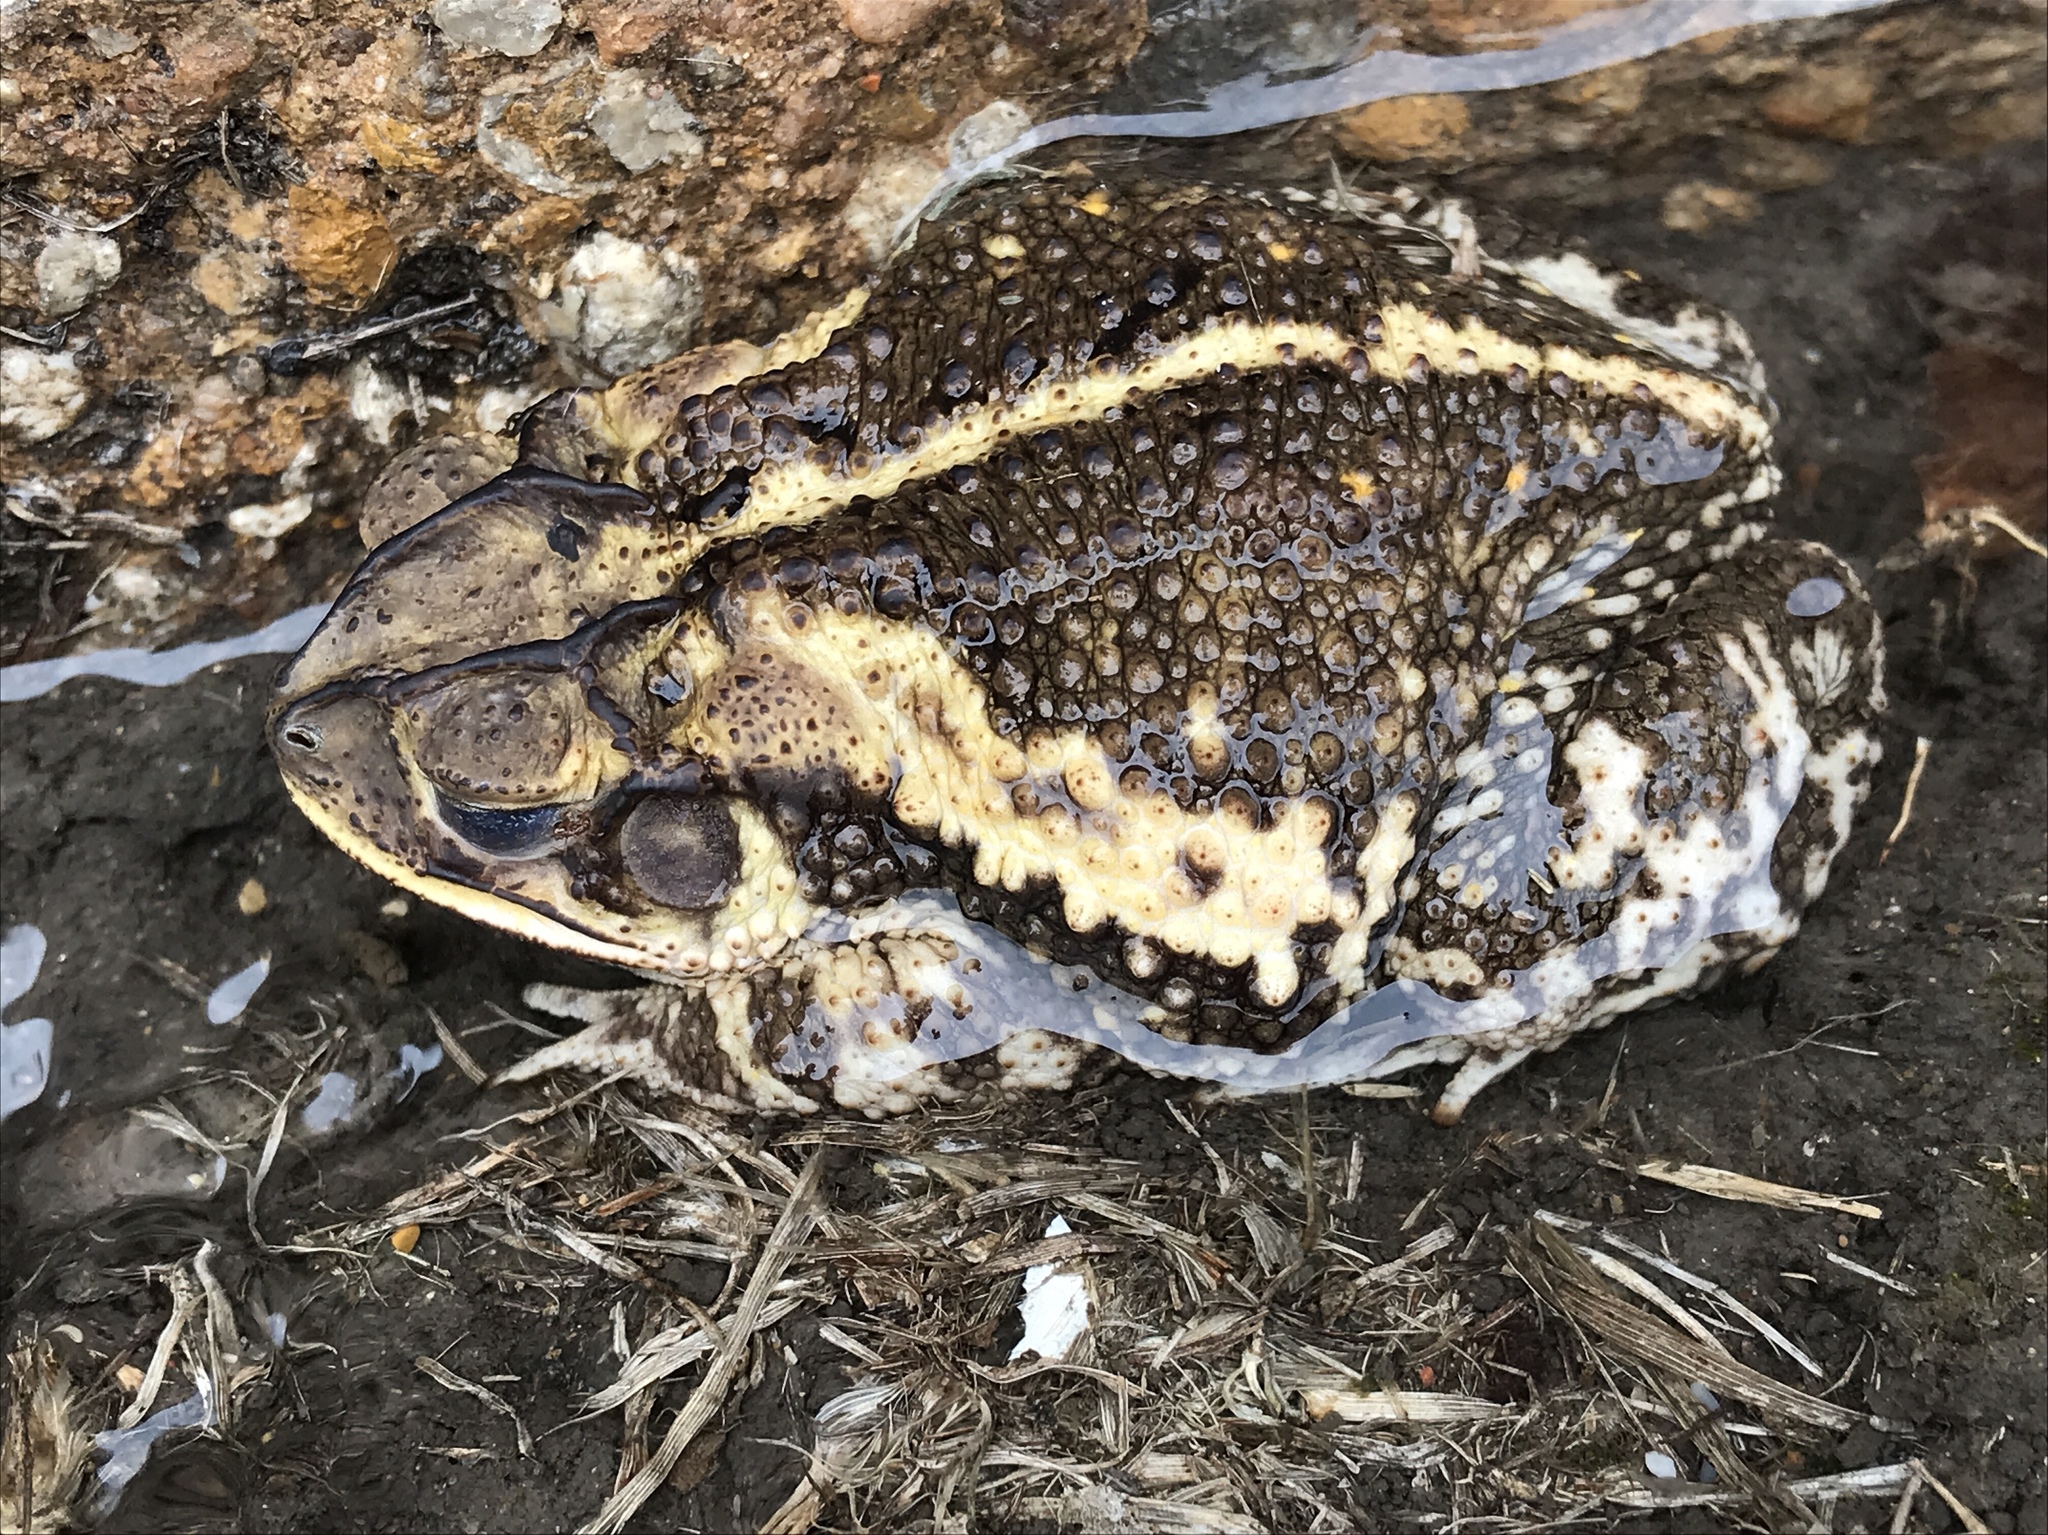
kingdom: Animalia
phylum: Chordata
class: Amphibia
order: Anura
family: Bufonidae
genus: Incilius
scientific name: Incilius nebulifer
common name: Gulf coast toad
